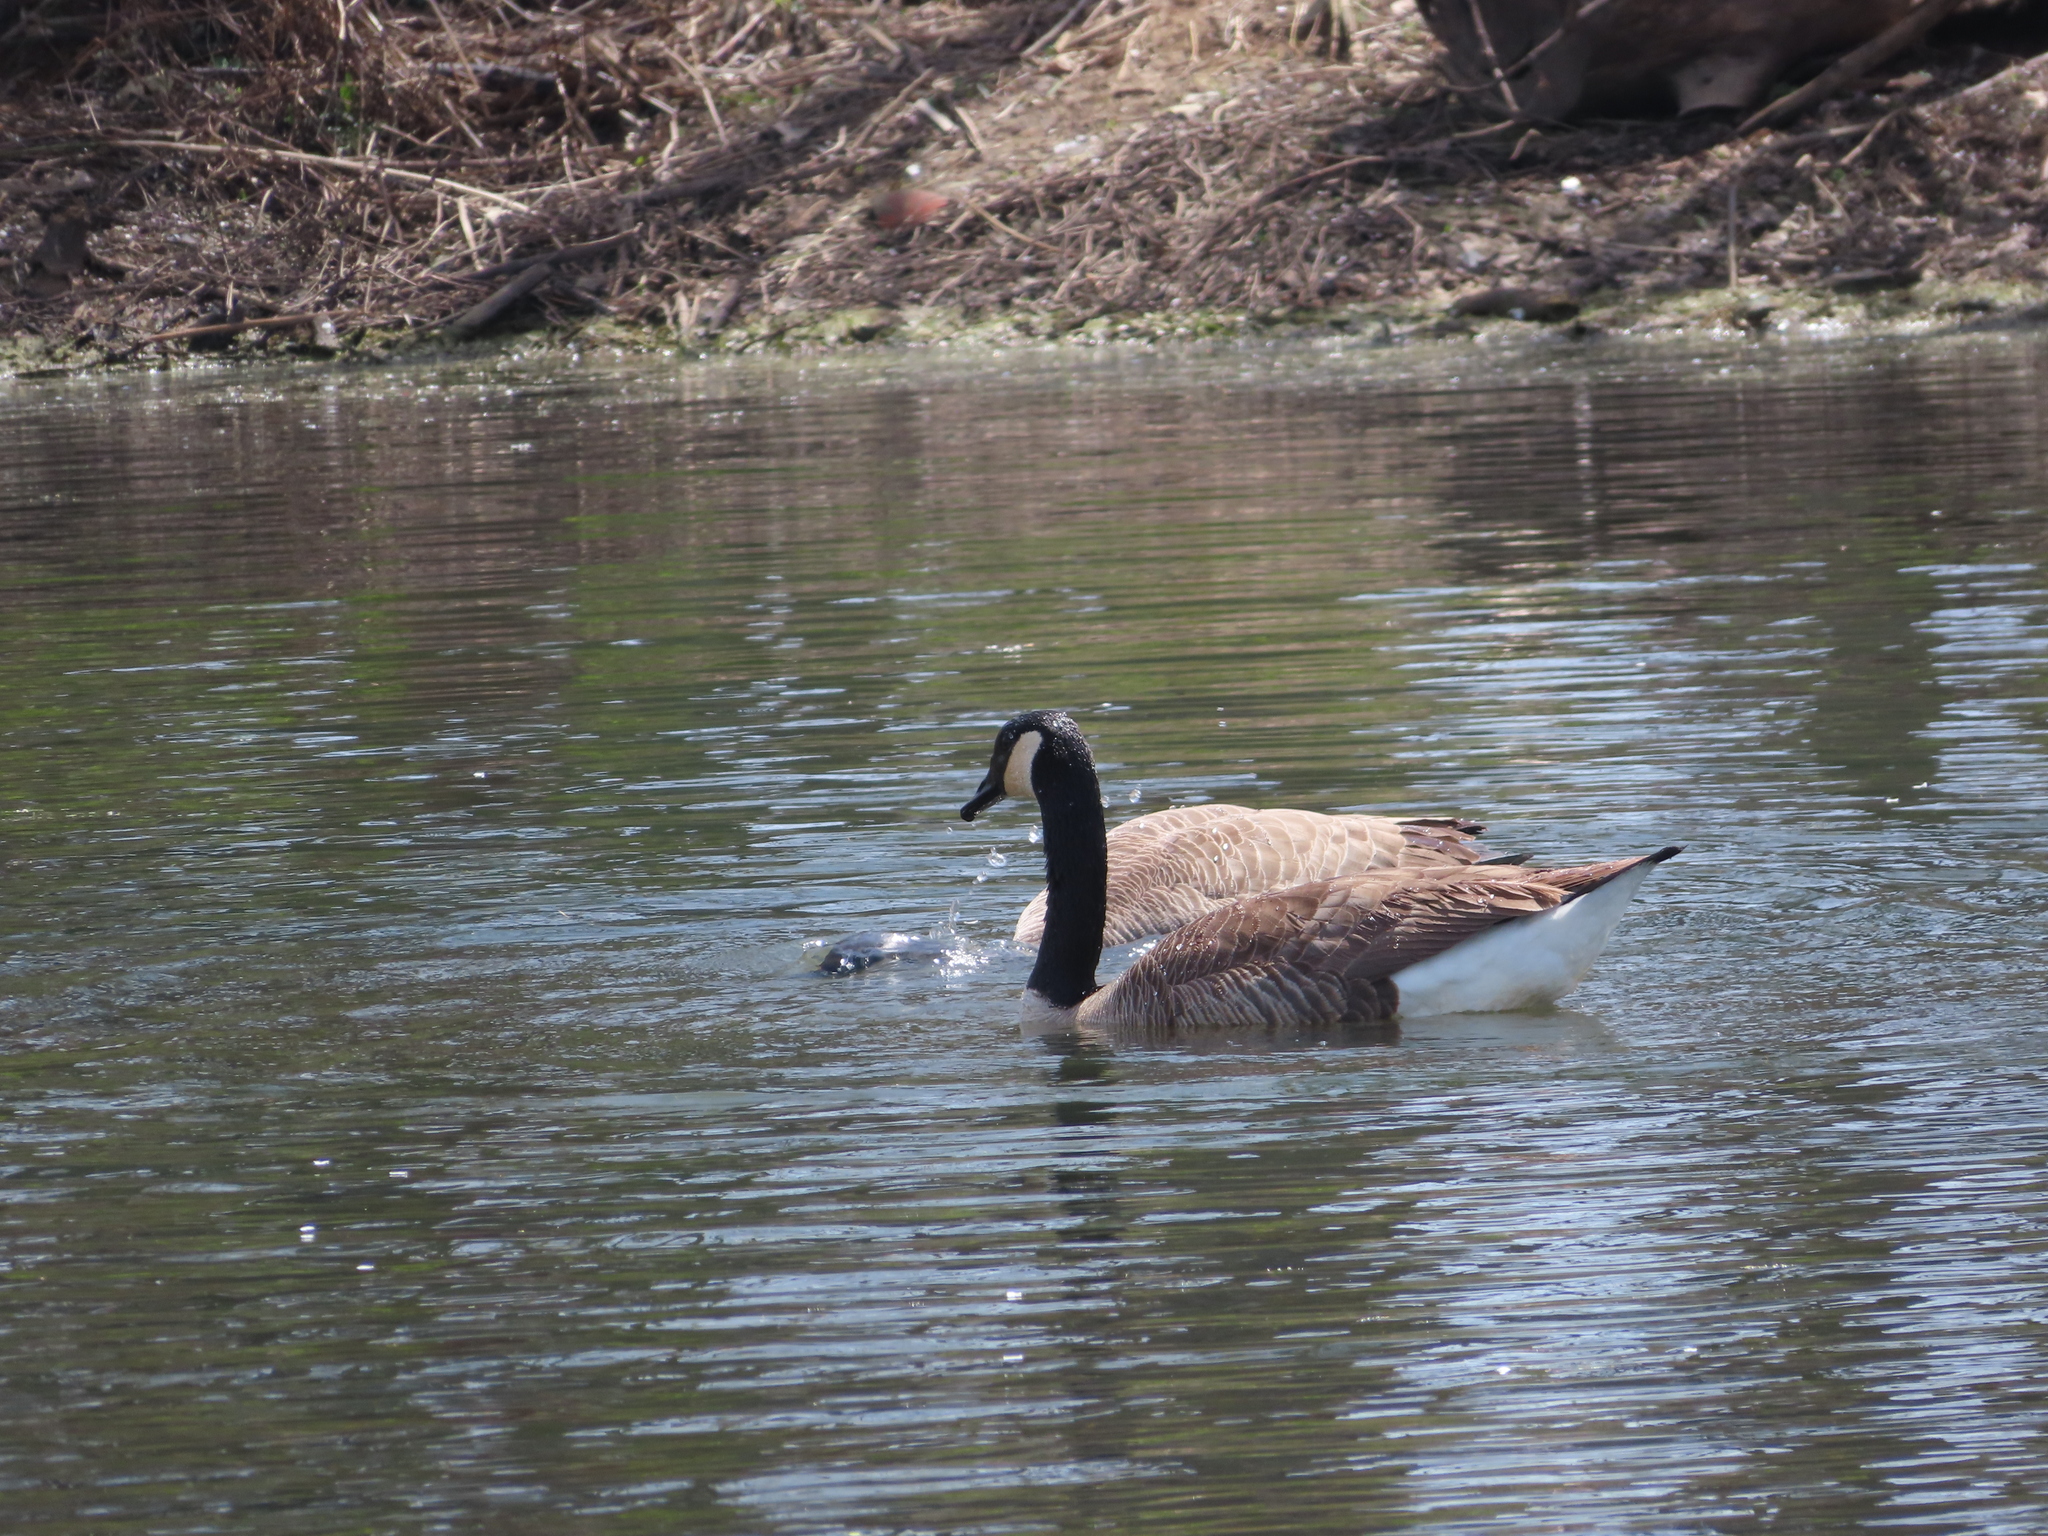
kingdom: Animalia
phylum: Chordata
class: Aves
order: Anseriformes
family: Anatidae
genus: Branta
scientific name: Branta canadensis
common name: Canada goose
